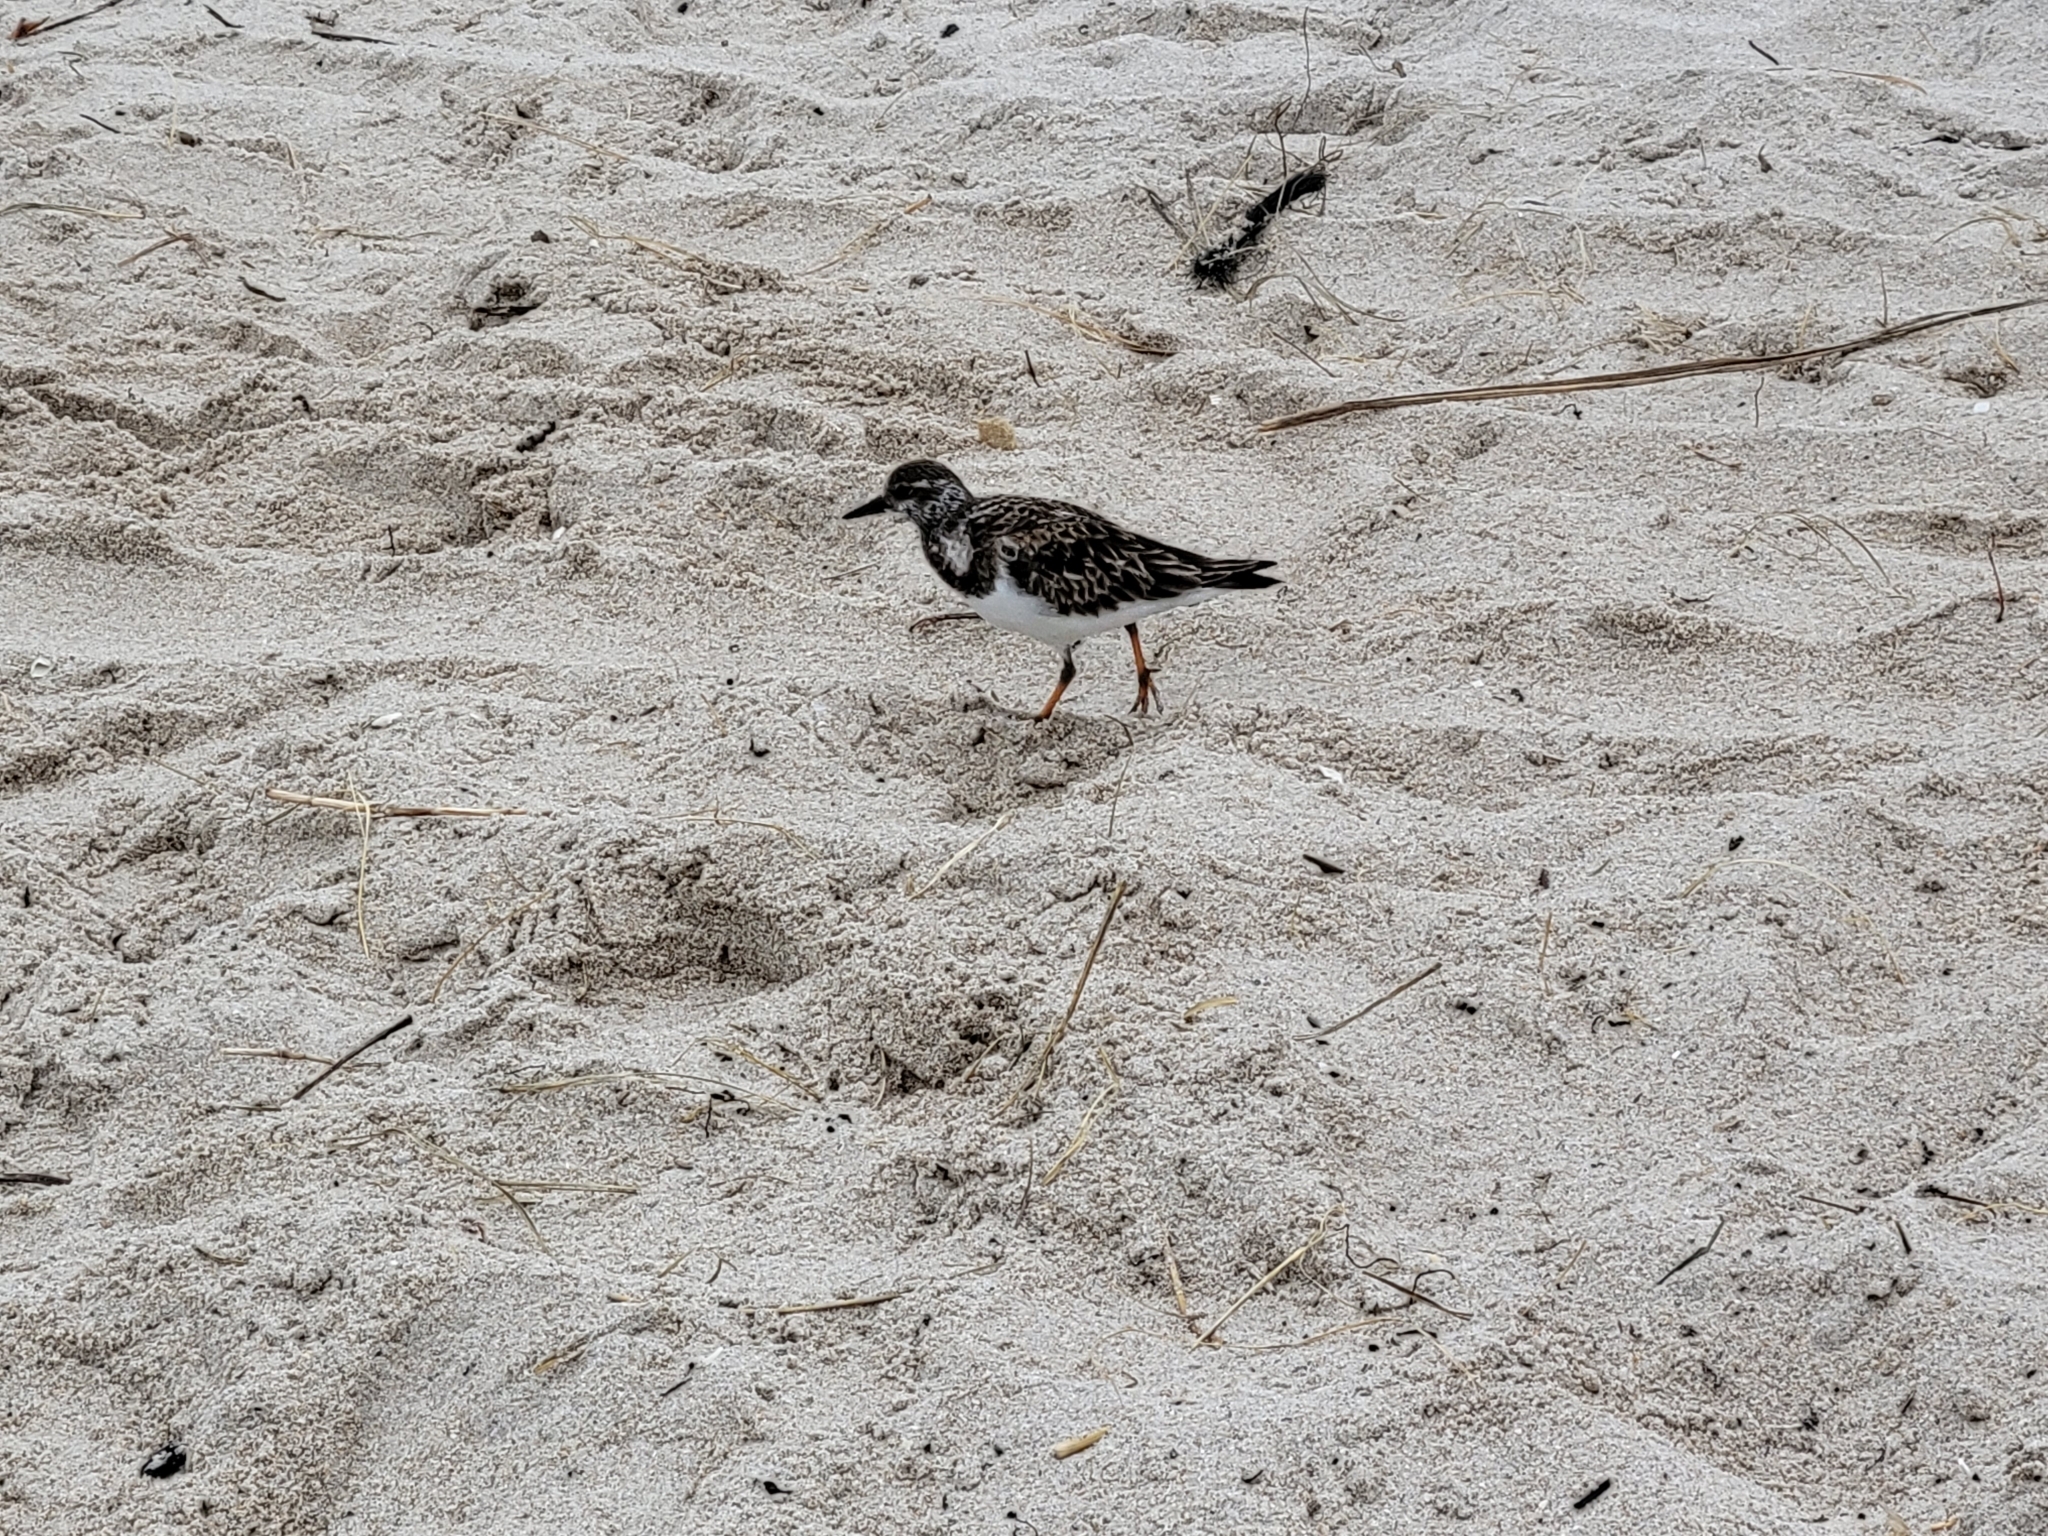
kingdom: Animalia
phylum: Chordata
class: Aves
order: Charadriiformes
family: Scolopacidae
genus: Arenaria
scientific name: Arenaria interpres
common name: Ruddy turnstone
